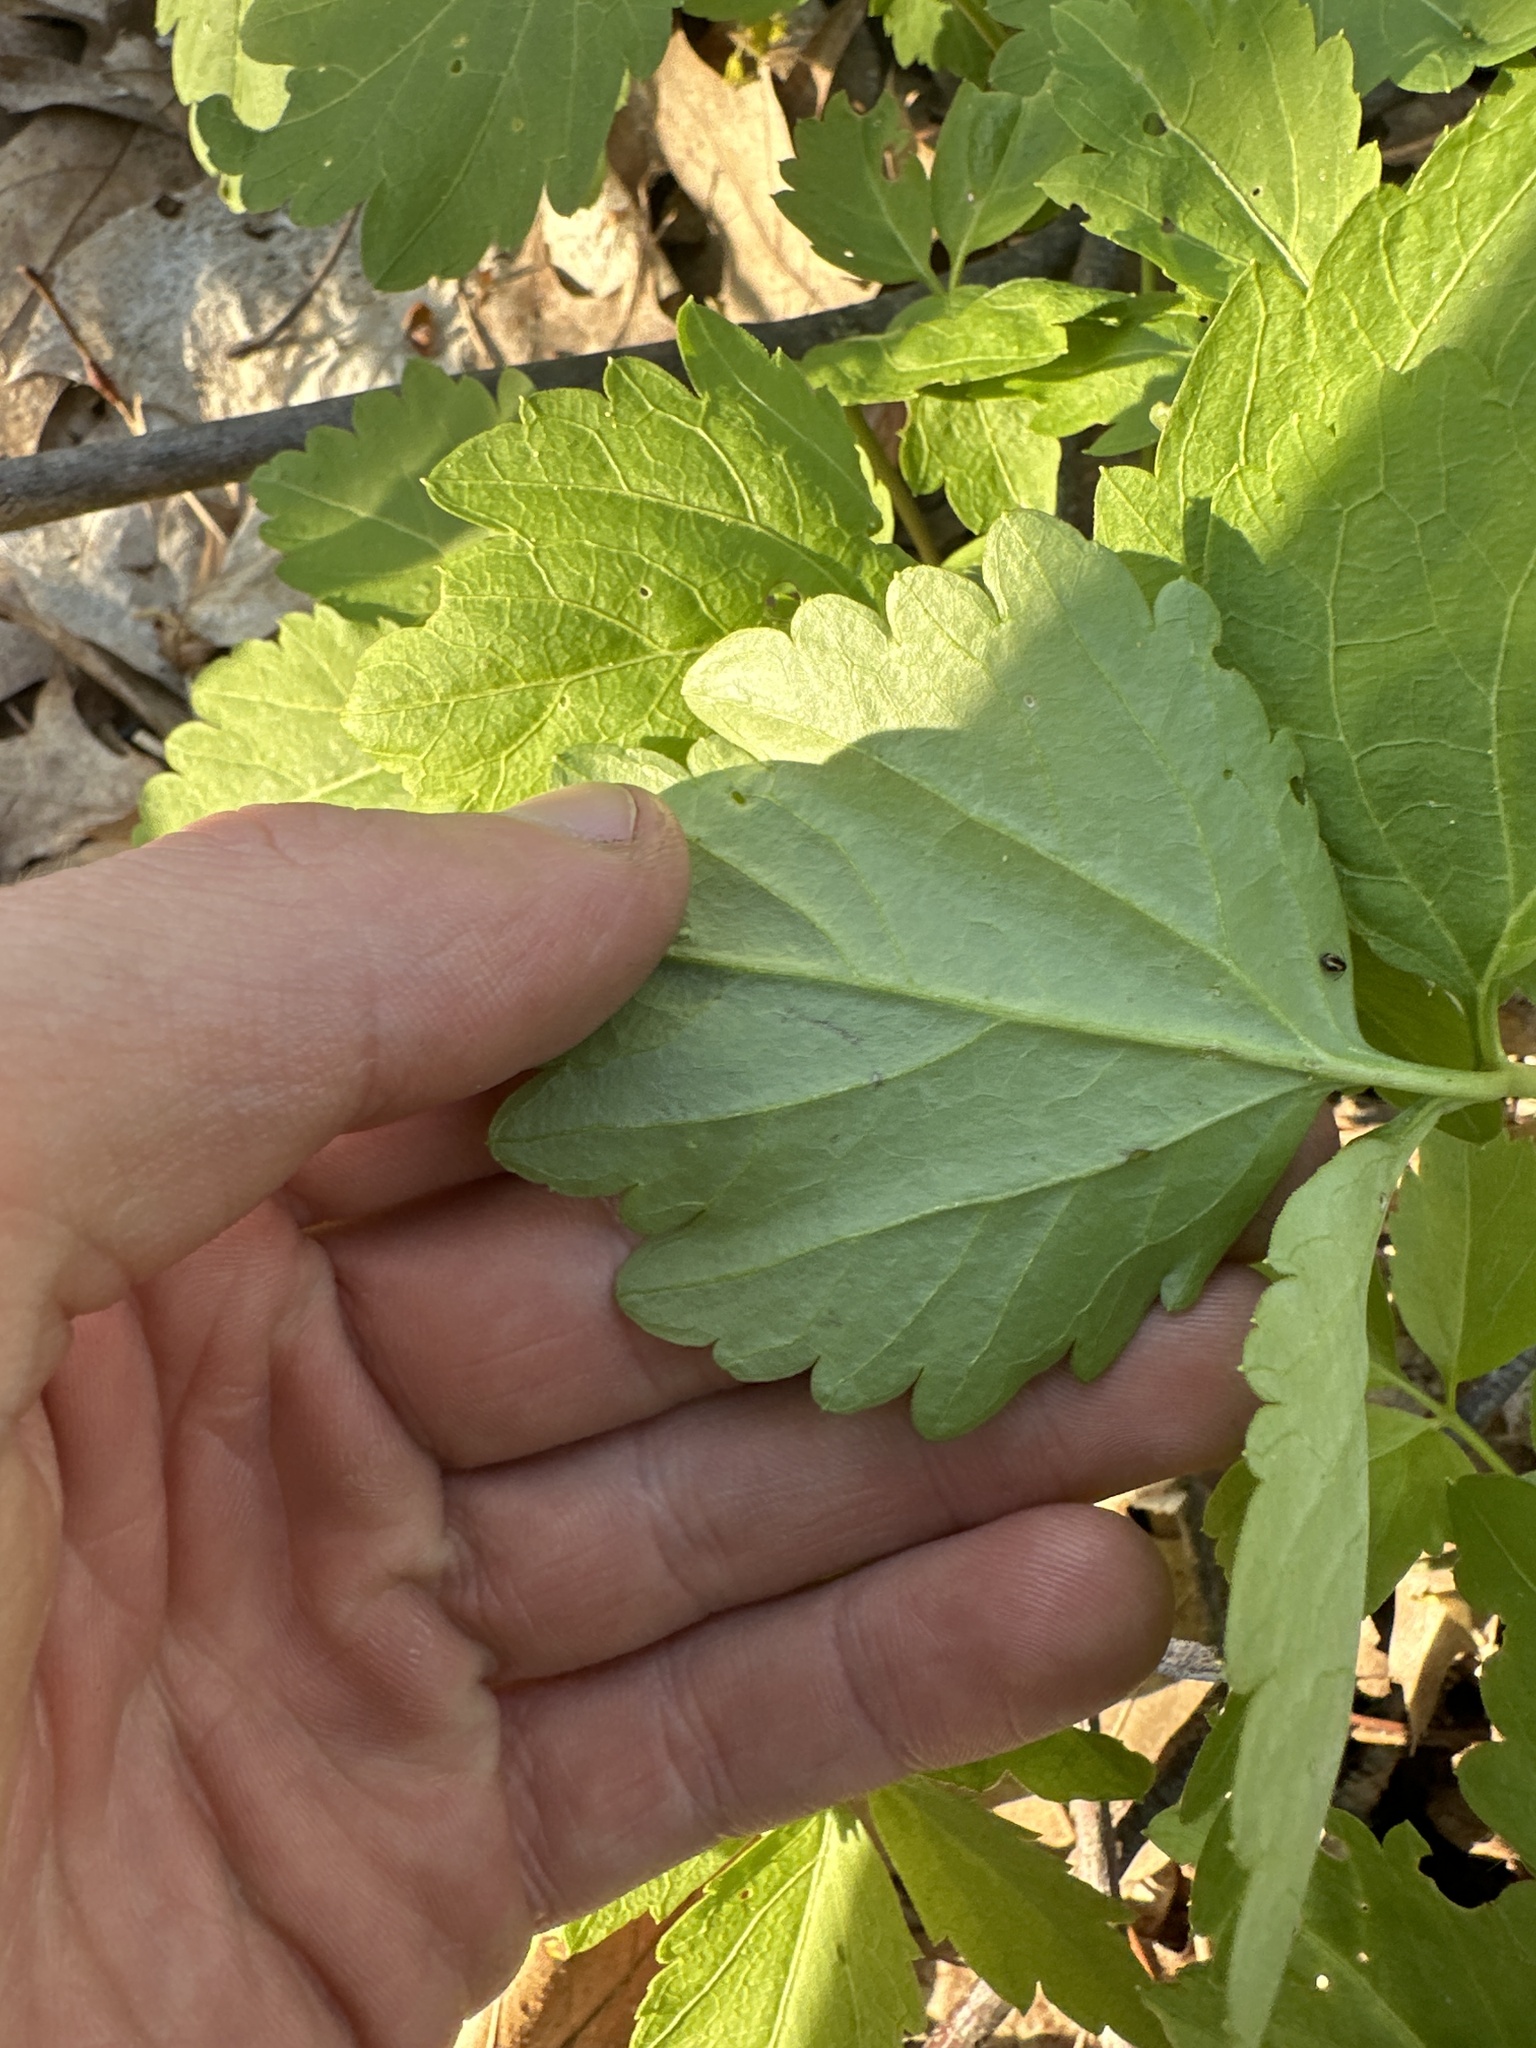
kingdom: Plantae
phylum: Tracheophyta
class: Magnoliopsida
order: Brassicales
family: Brassicaceae
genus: Cardamine
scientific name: Cardamine diphylla
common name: Broad-leaved toothwort
